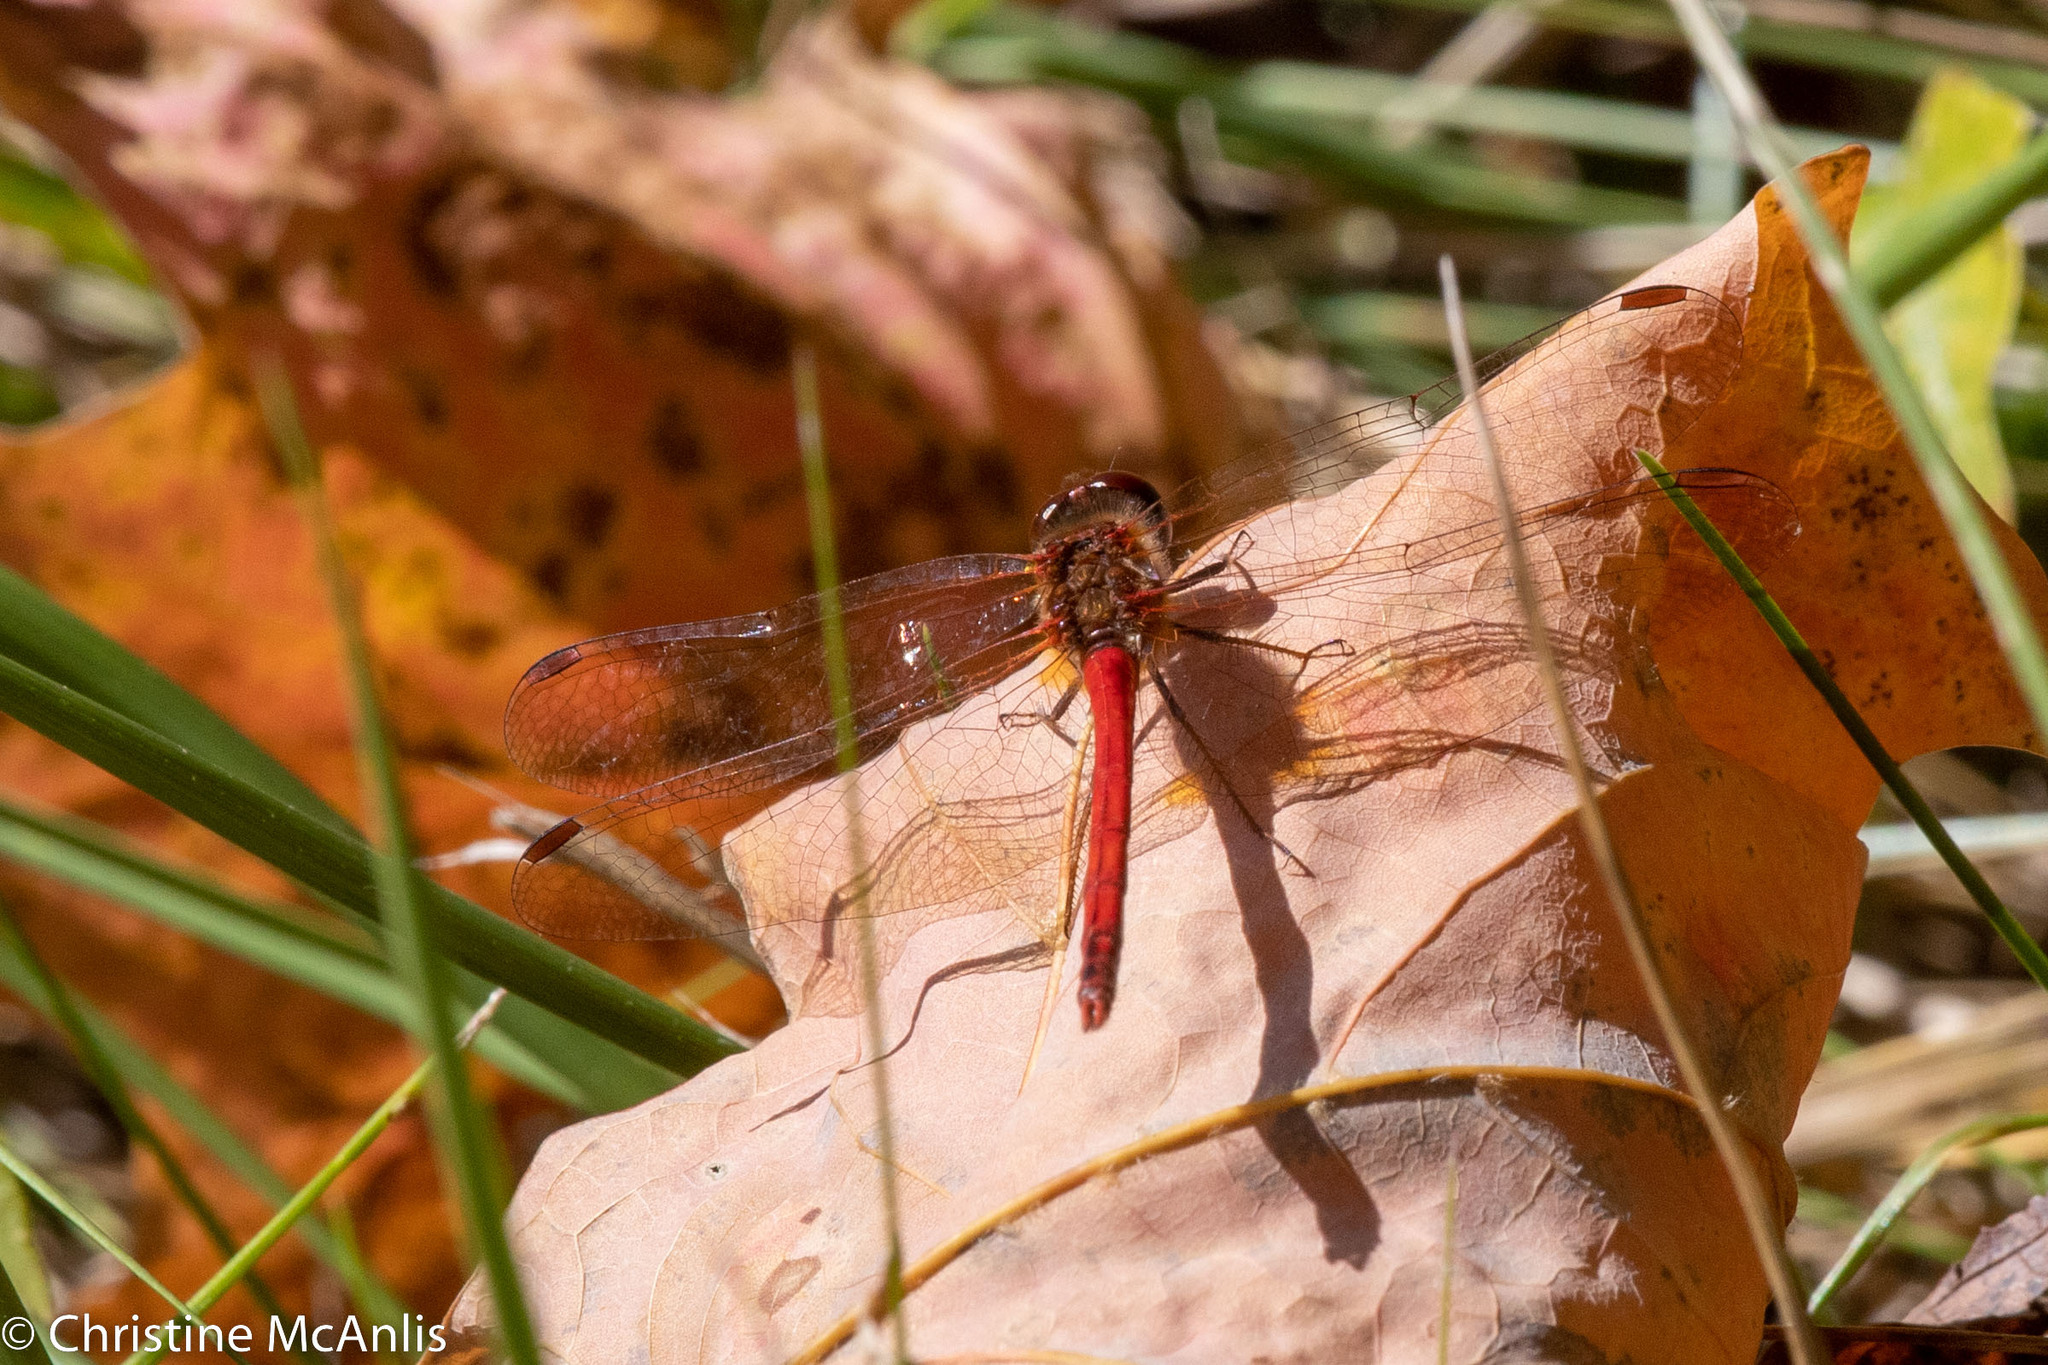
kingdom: Animalia
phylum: Arthropoda
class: Insecta
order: Odonata
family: Libellulidae
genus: Sympetrum
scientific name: Sympetrum vicinum
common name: Autumn meadowhawk
